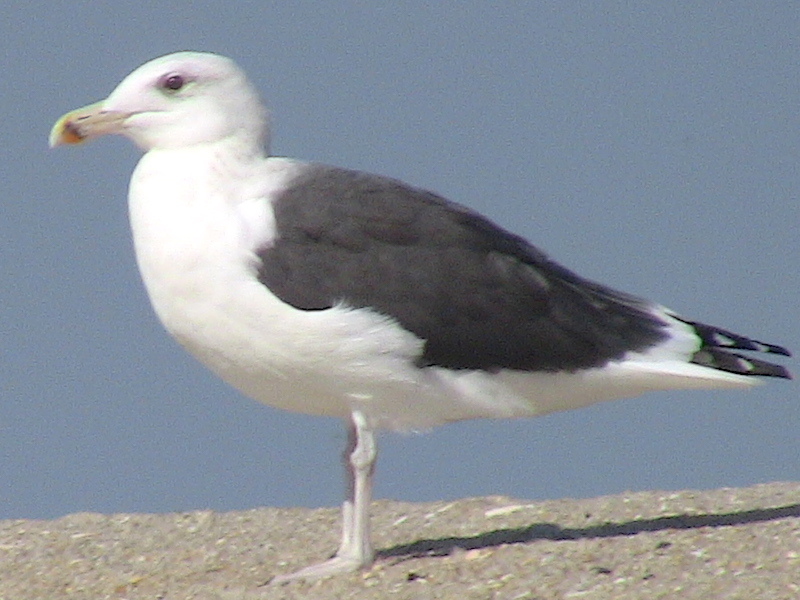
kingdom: Animalia
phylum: Chordata
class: Aves
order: Charadriiformes
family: Laridae
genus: Larus
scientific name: Larus marinus
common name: Great black-backed gull
